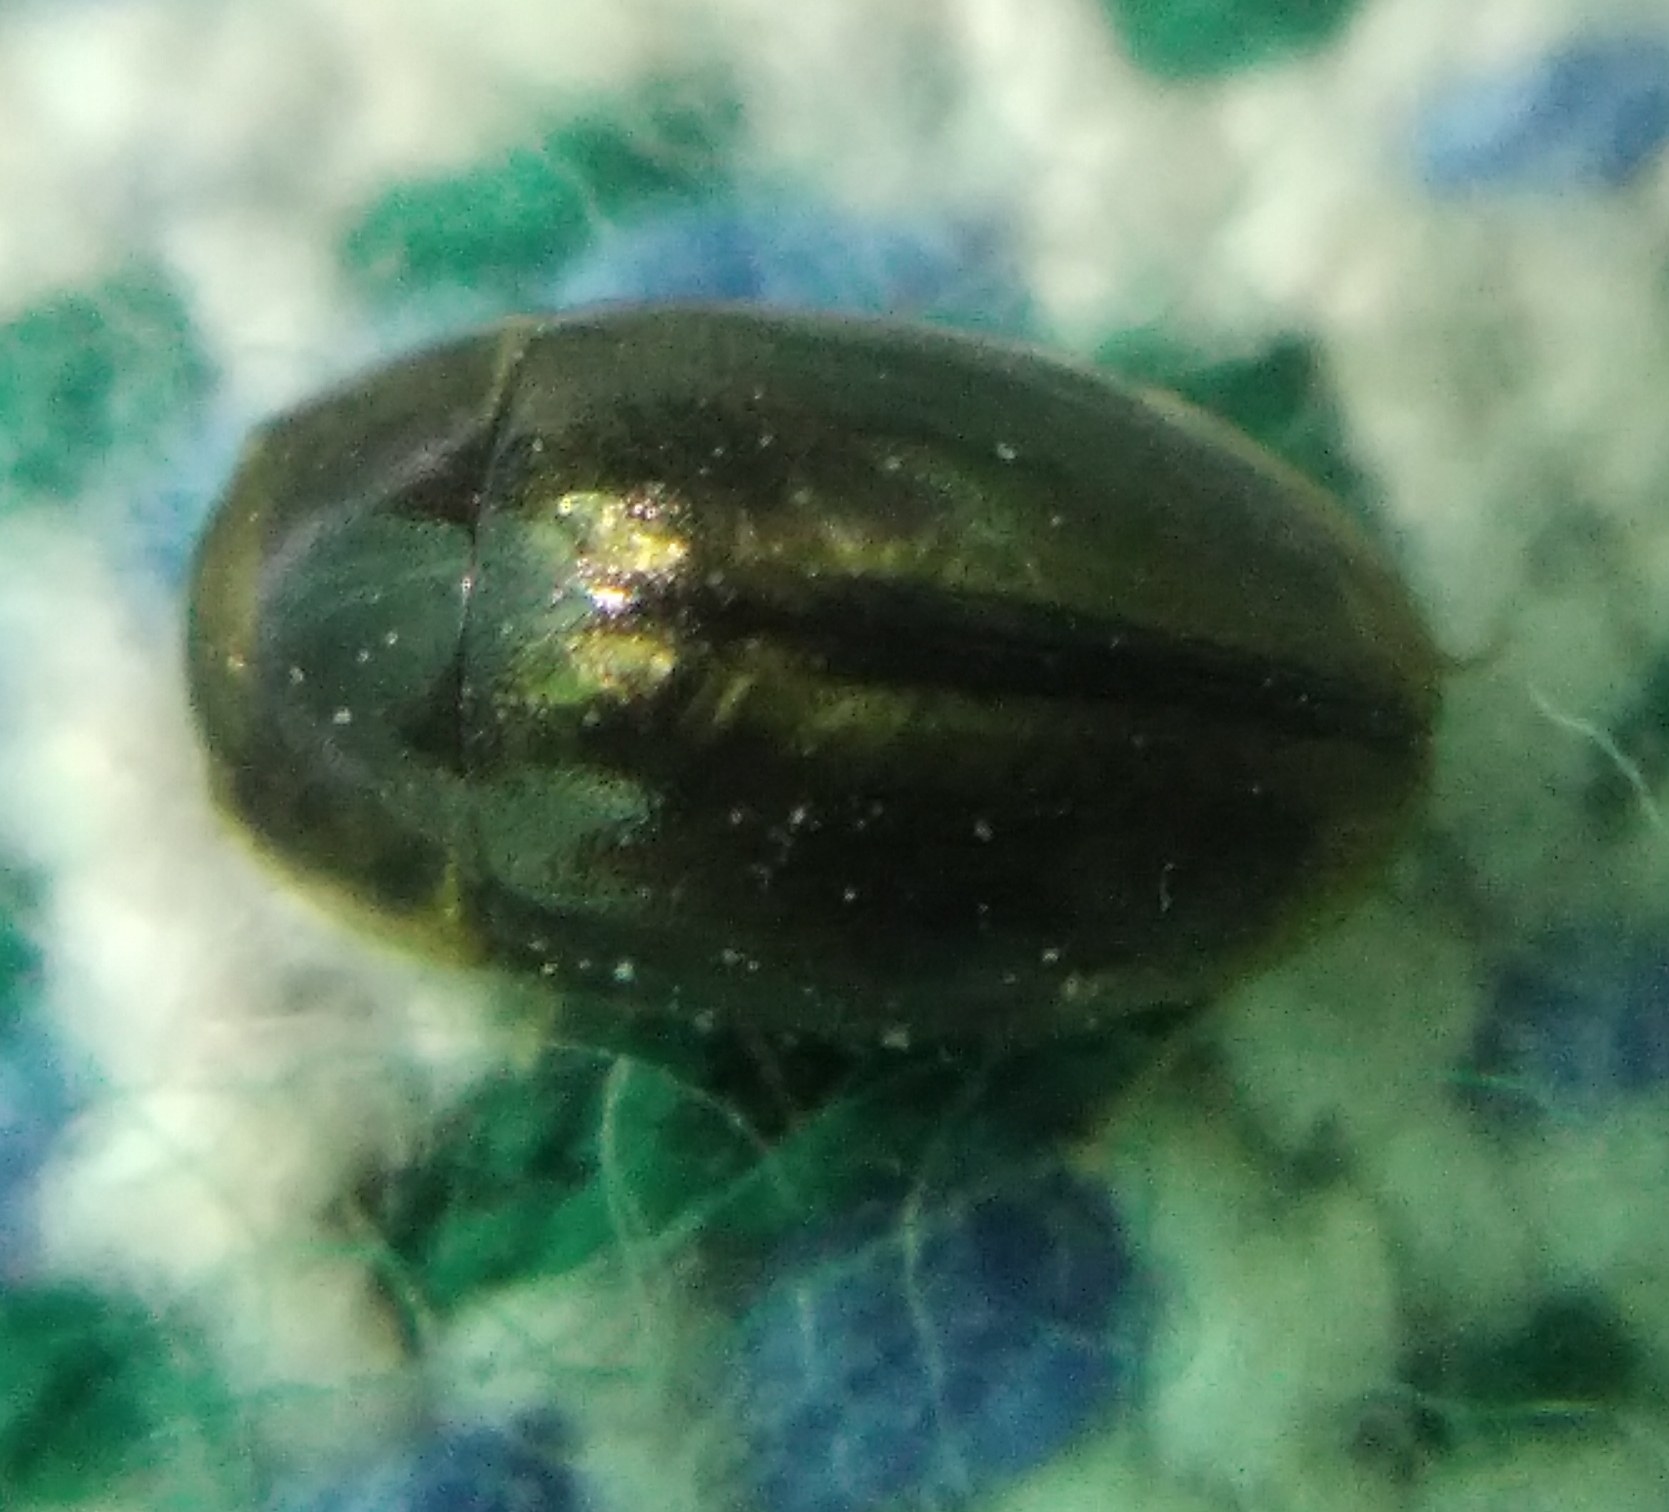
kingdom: Animalia
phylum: Arthropoda
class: Insecta
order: Coleoptera
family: Hydrophilidae
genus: Enochrus
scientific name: Enochrus coarctatus
